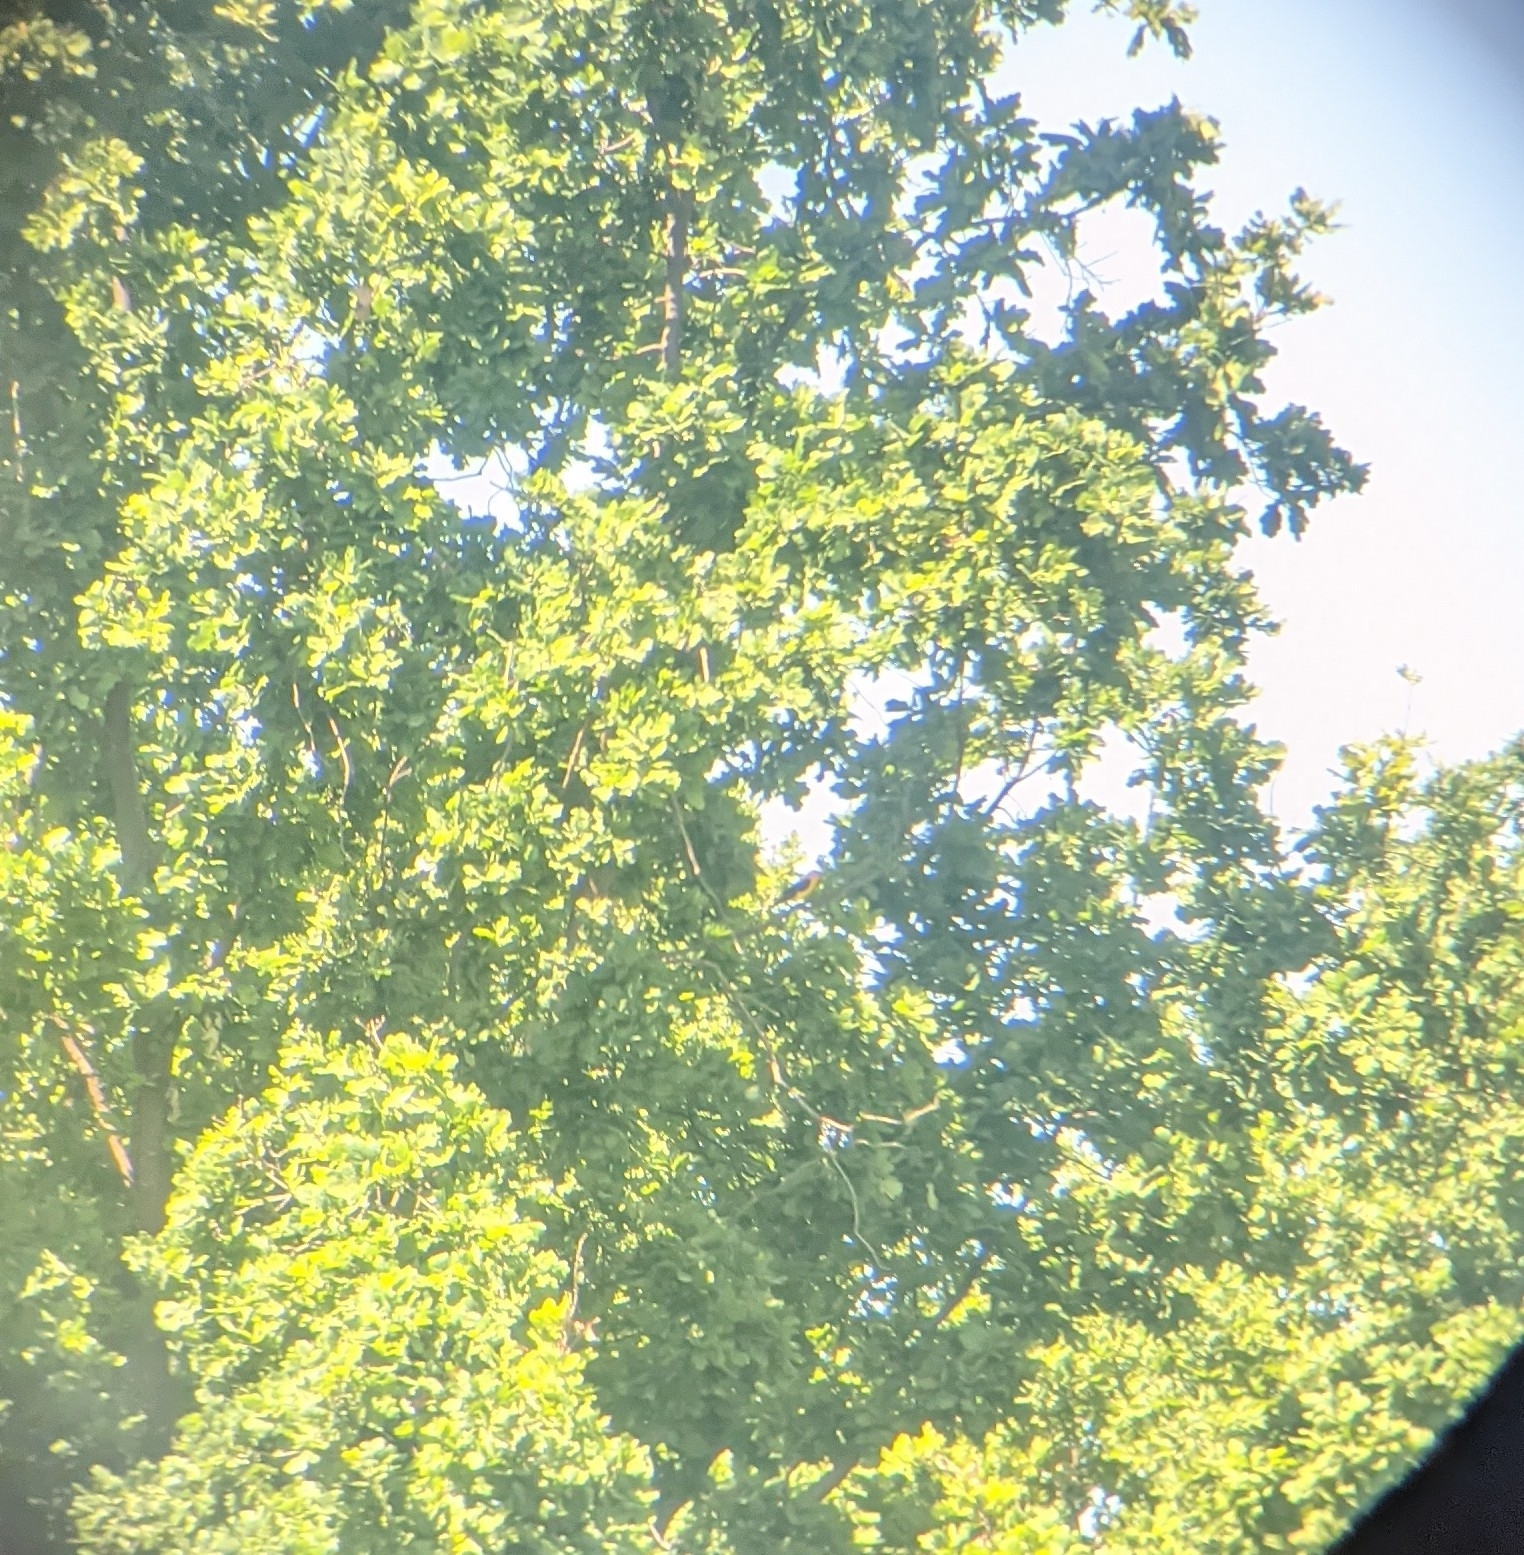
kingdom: Animalia
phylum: Chordata
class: Aves
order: Passeriformes
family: Oriolidae
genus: Oriolus
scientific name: Oriolus oriolus
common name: Eurasian golden oriole
